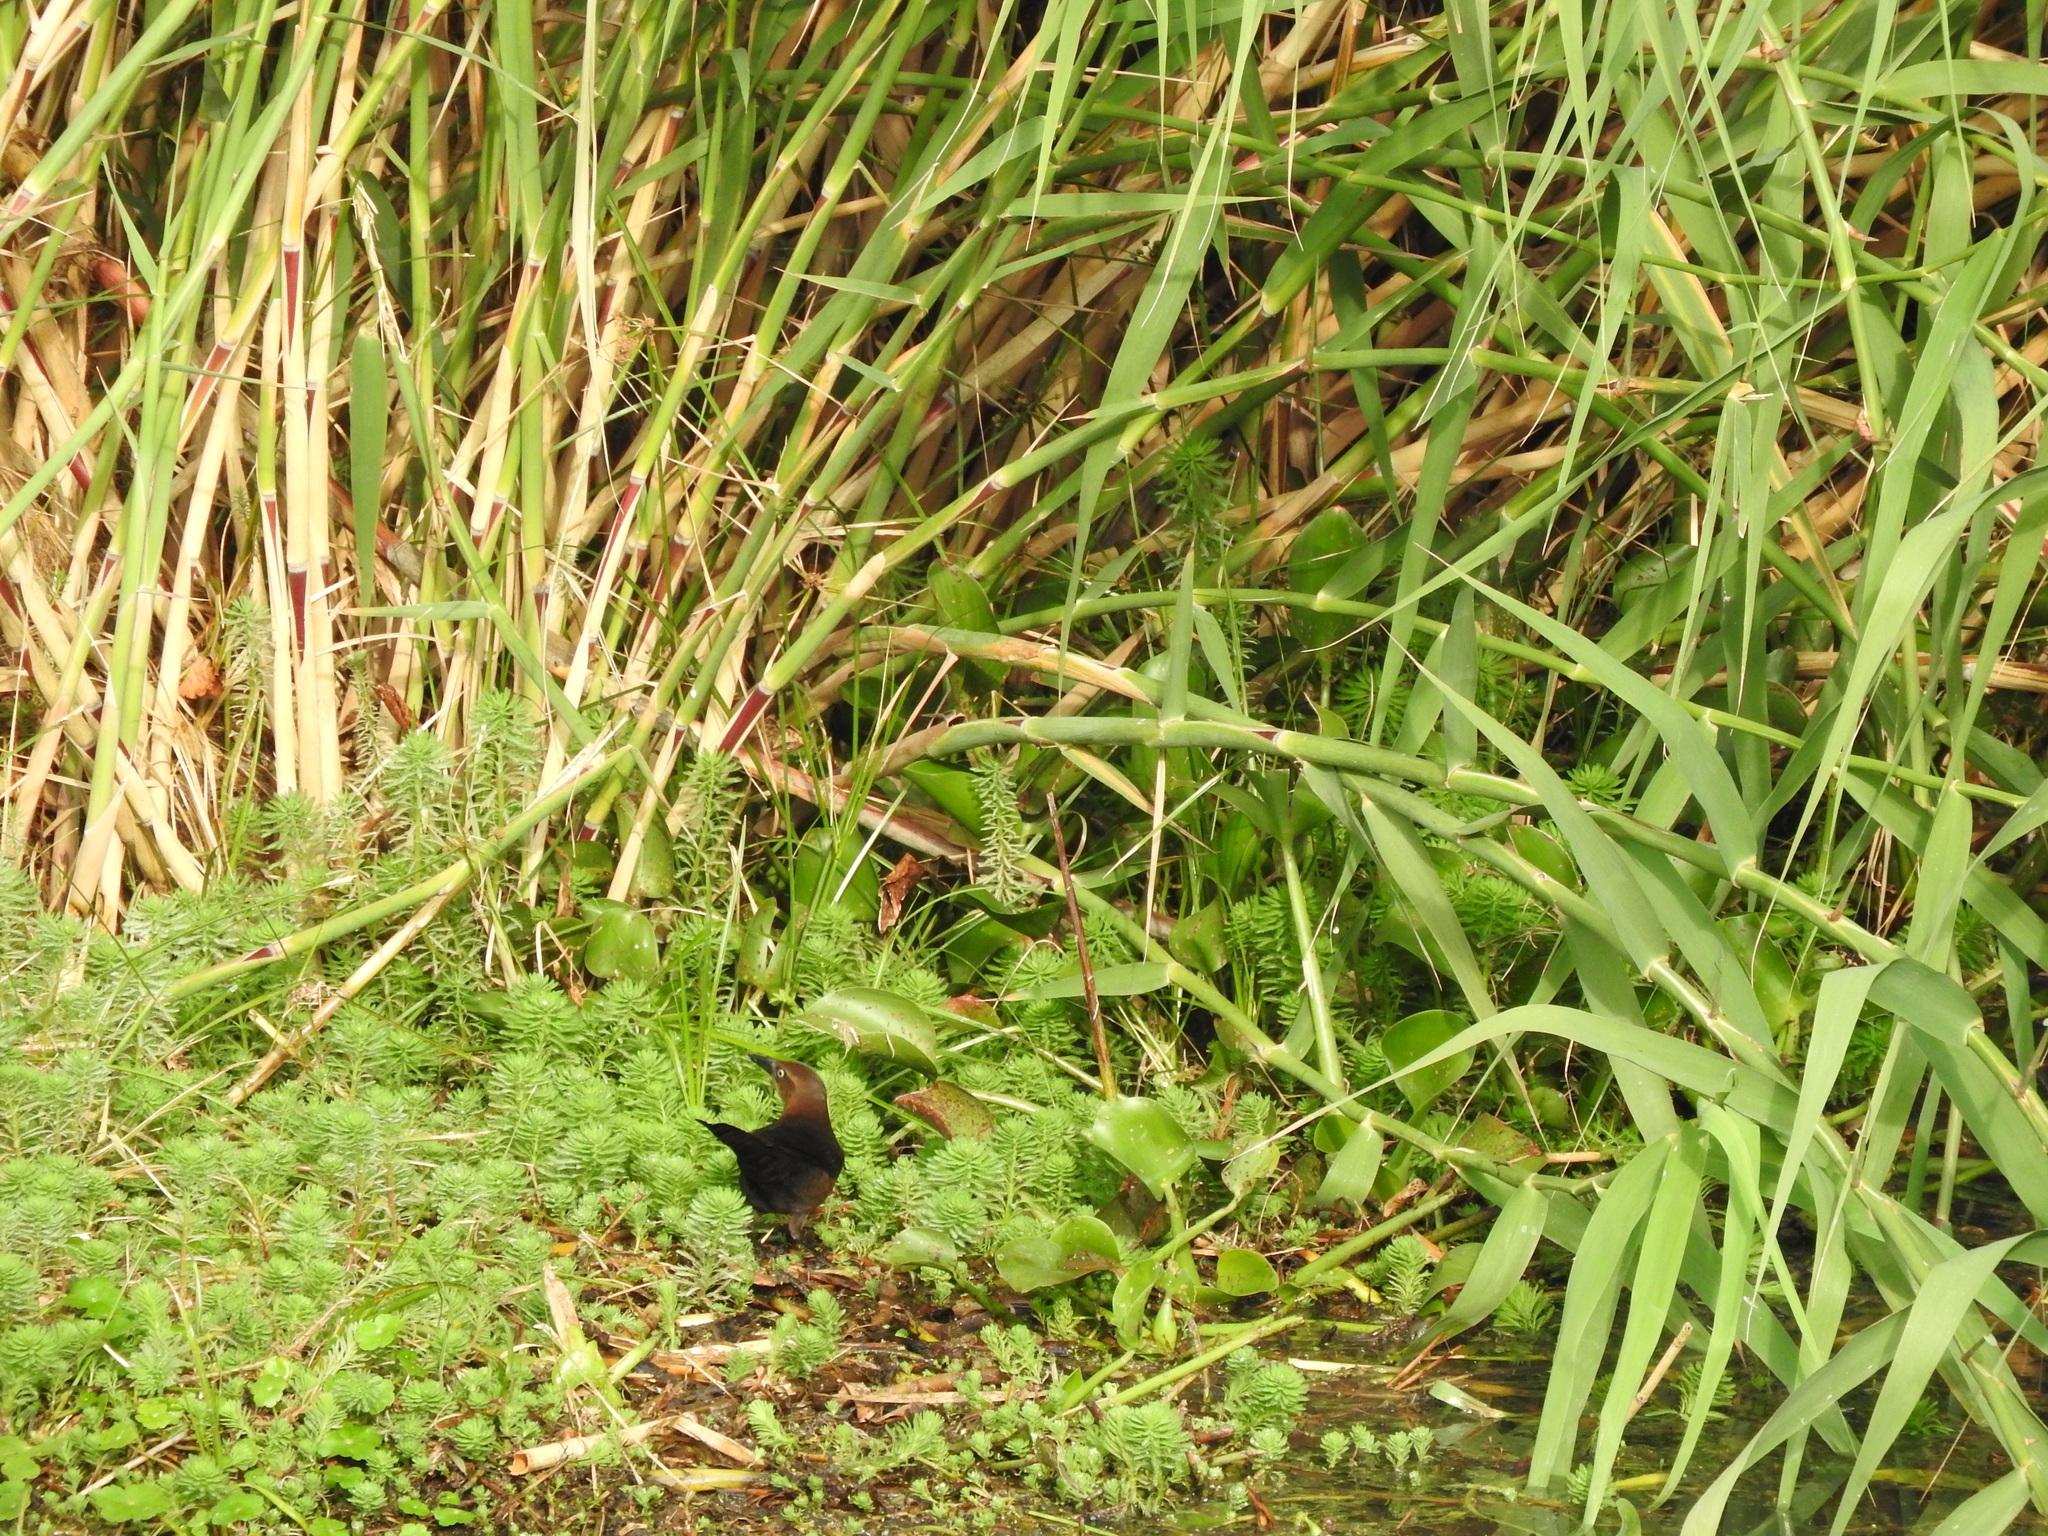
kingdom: Animalia
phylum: Chordata
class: Aves
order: Passeriformes
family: Icteridae
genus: Quiscalus
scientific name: Quiscalus mexicanus
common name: Great-tailed grackle
